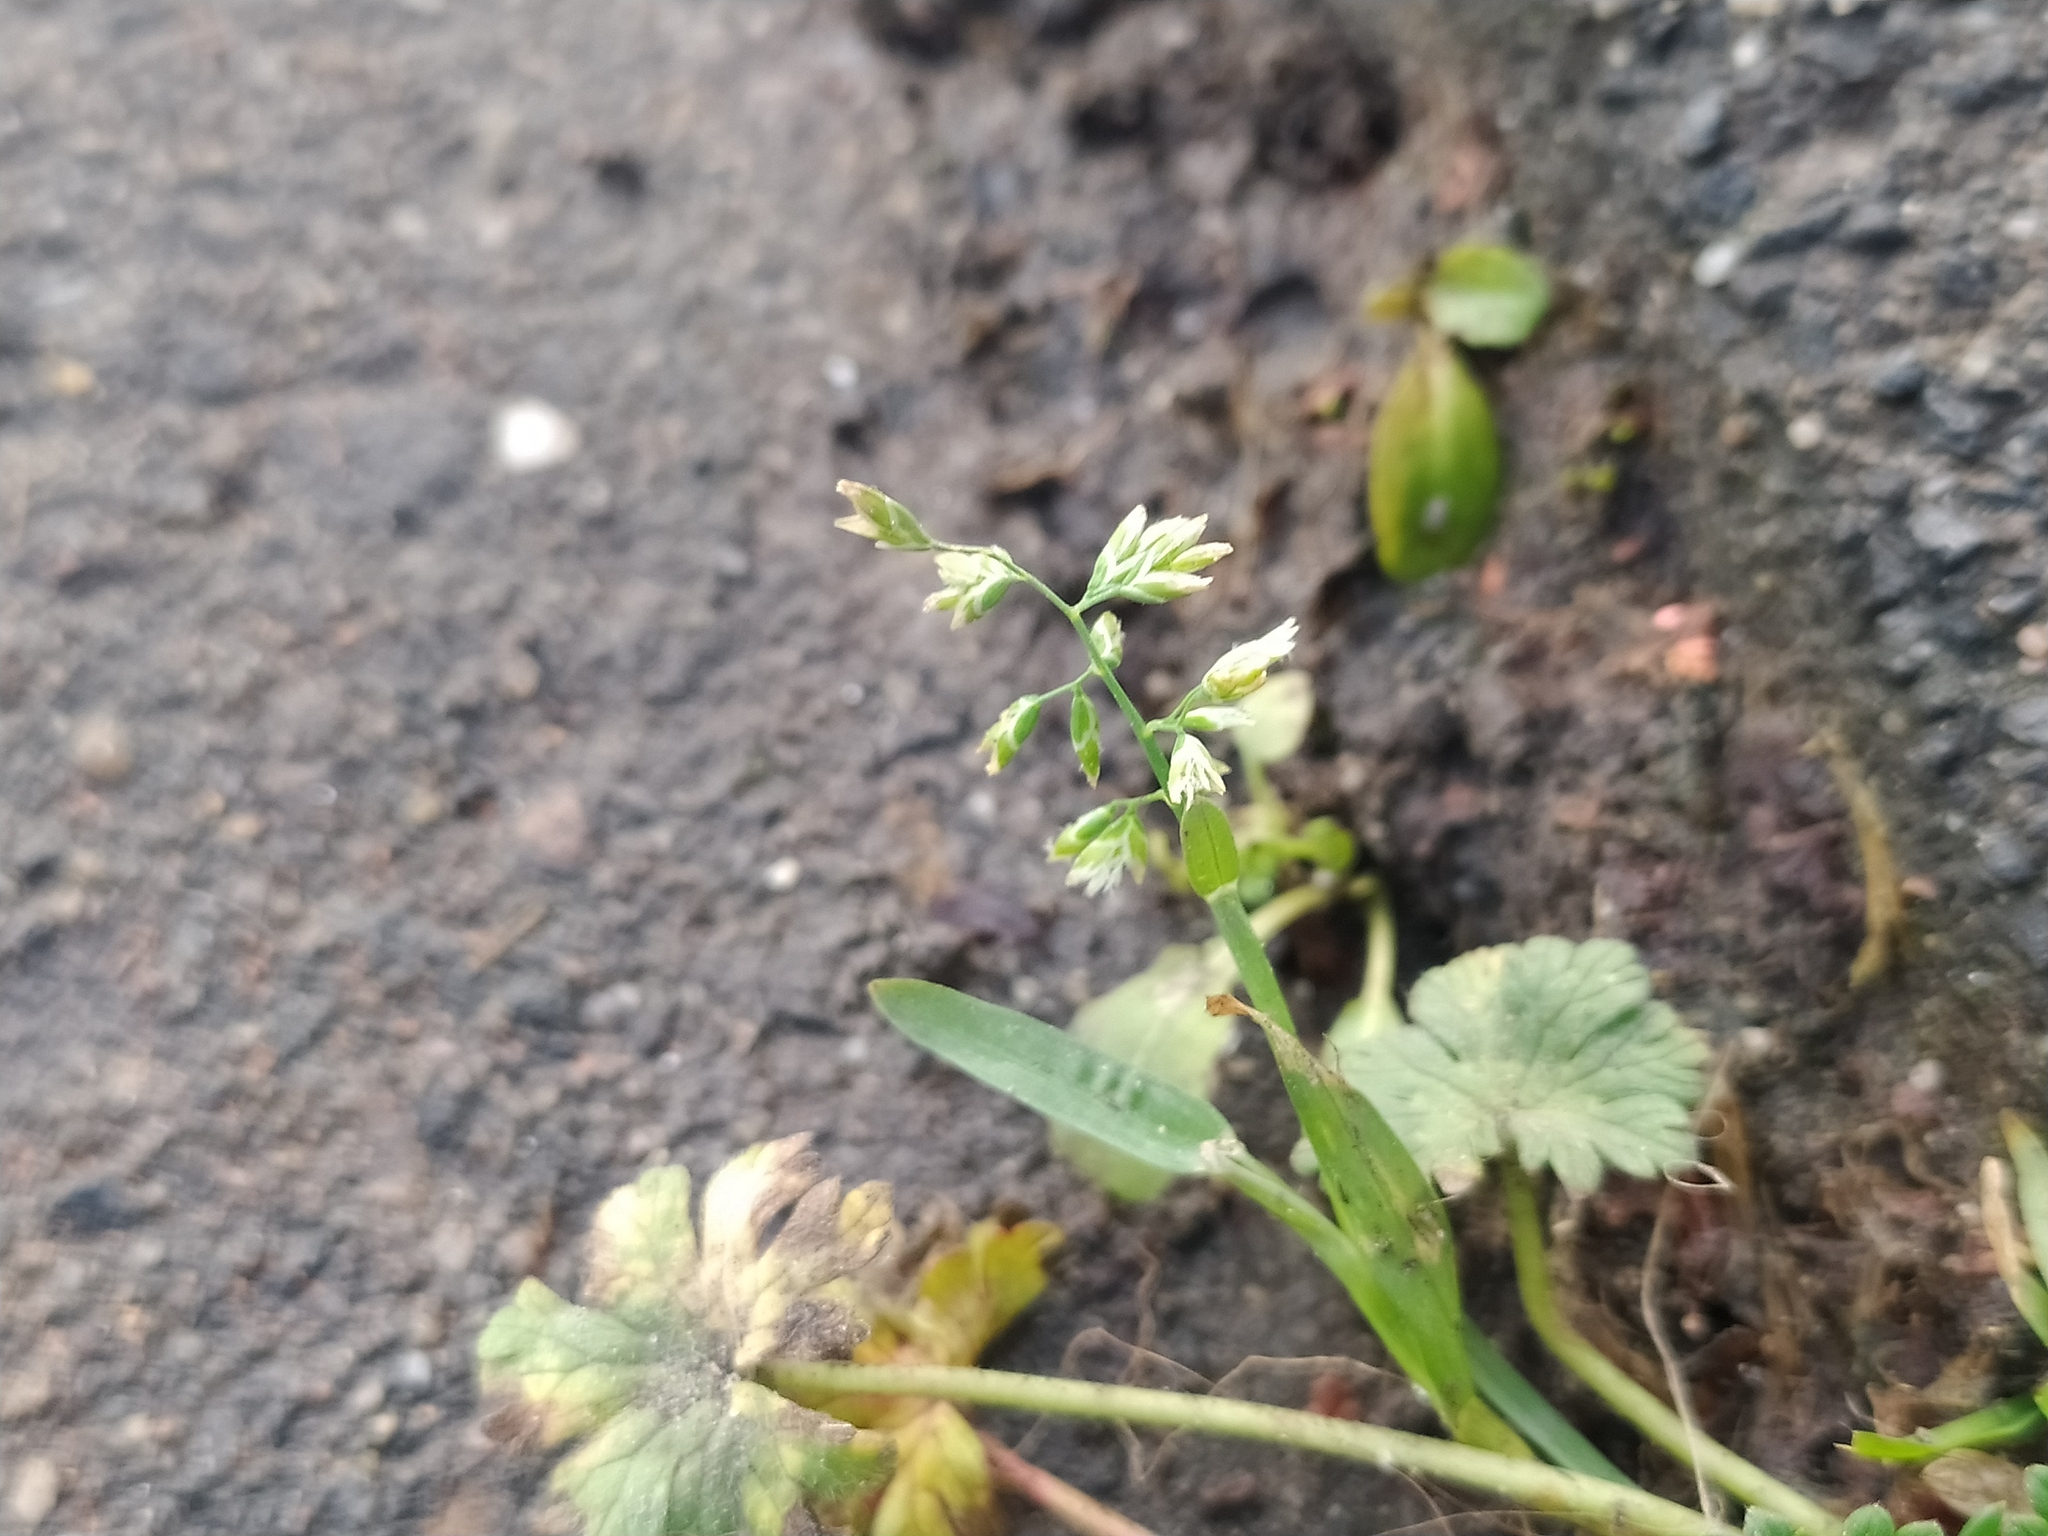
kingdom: Plantae
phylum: Tracheophyta
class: Liliopsida
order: Poales
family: Poaceae
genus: Poa
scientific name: Poa annua
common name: Annual bluegrass
